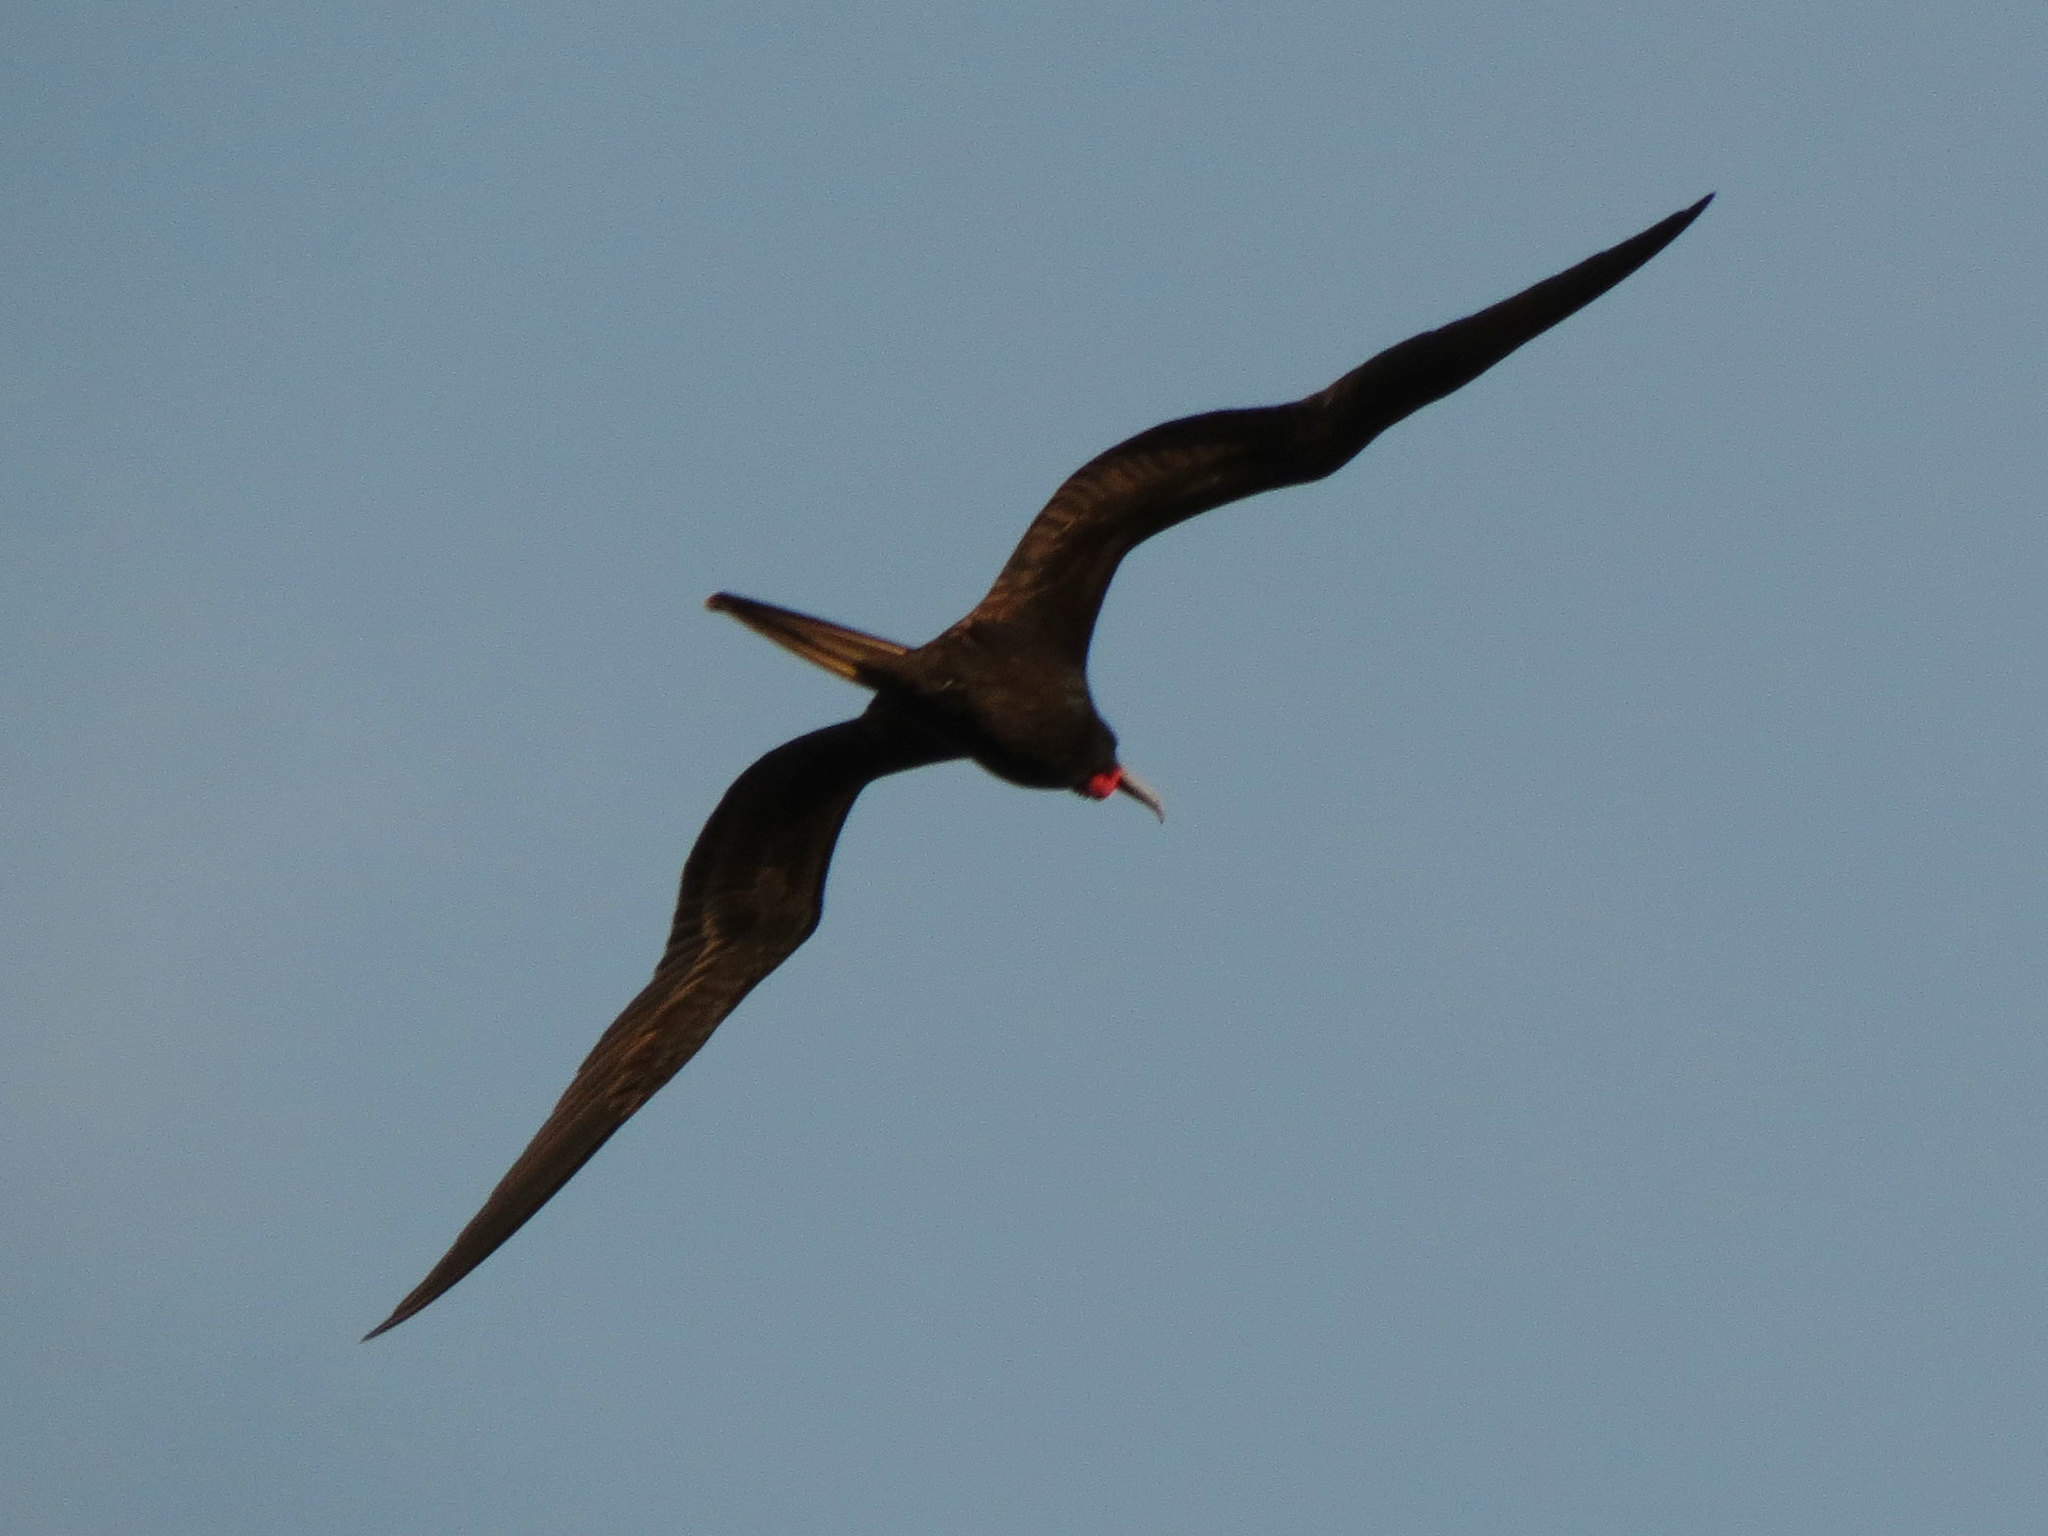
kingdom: Animalia
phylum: Chordata
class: Aves
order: Suliformes
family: Fregatidae
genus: Fregata
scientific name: Fregata magnificens
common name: Magnificent frigatebird
